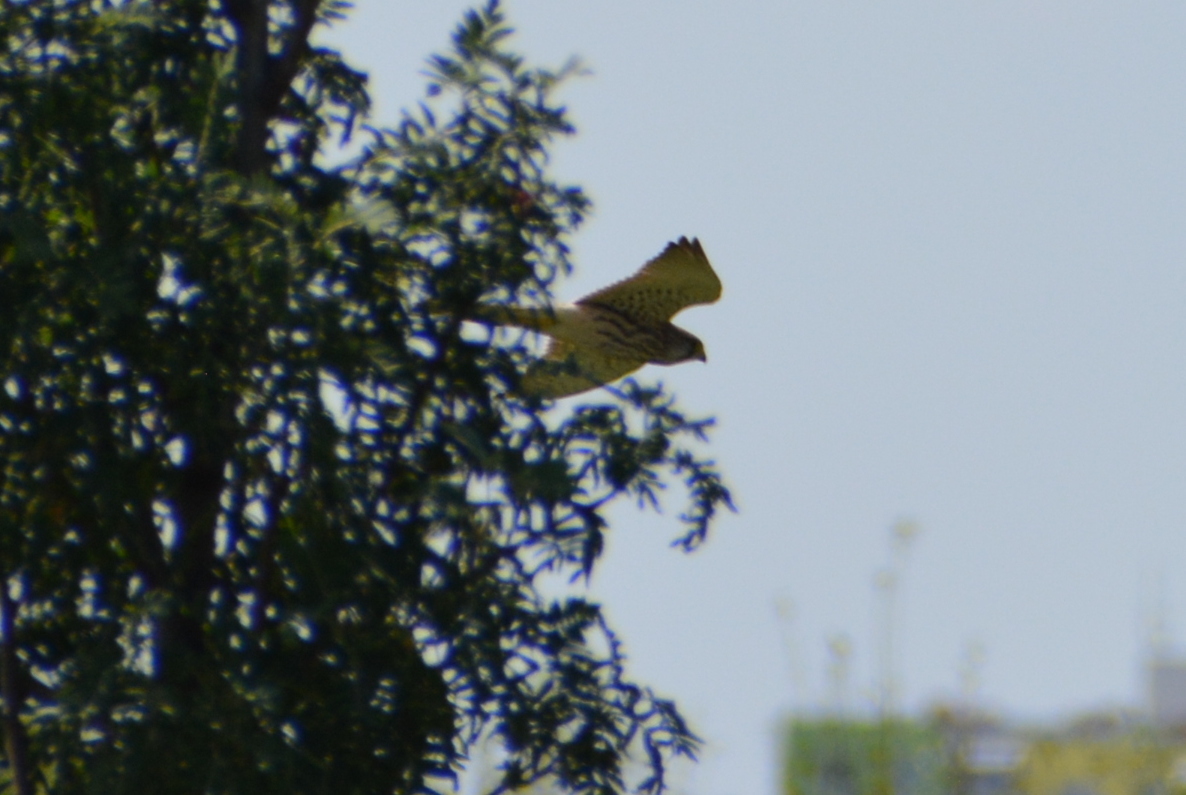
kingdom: Animalia
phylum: Chordata
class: Aves
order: Falconiformes
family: Falconidae
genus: Falco
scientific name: Falco tinnunculus
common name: Common kestrel
